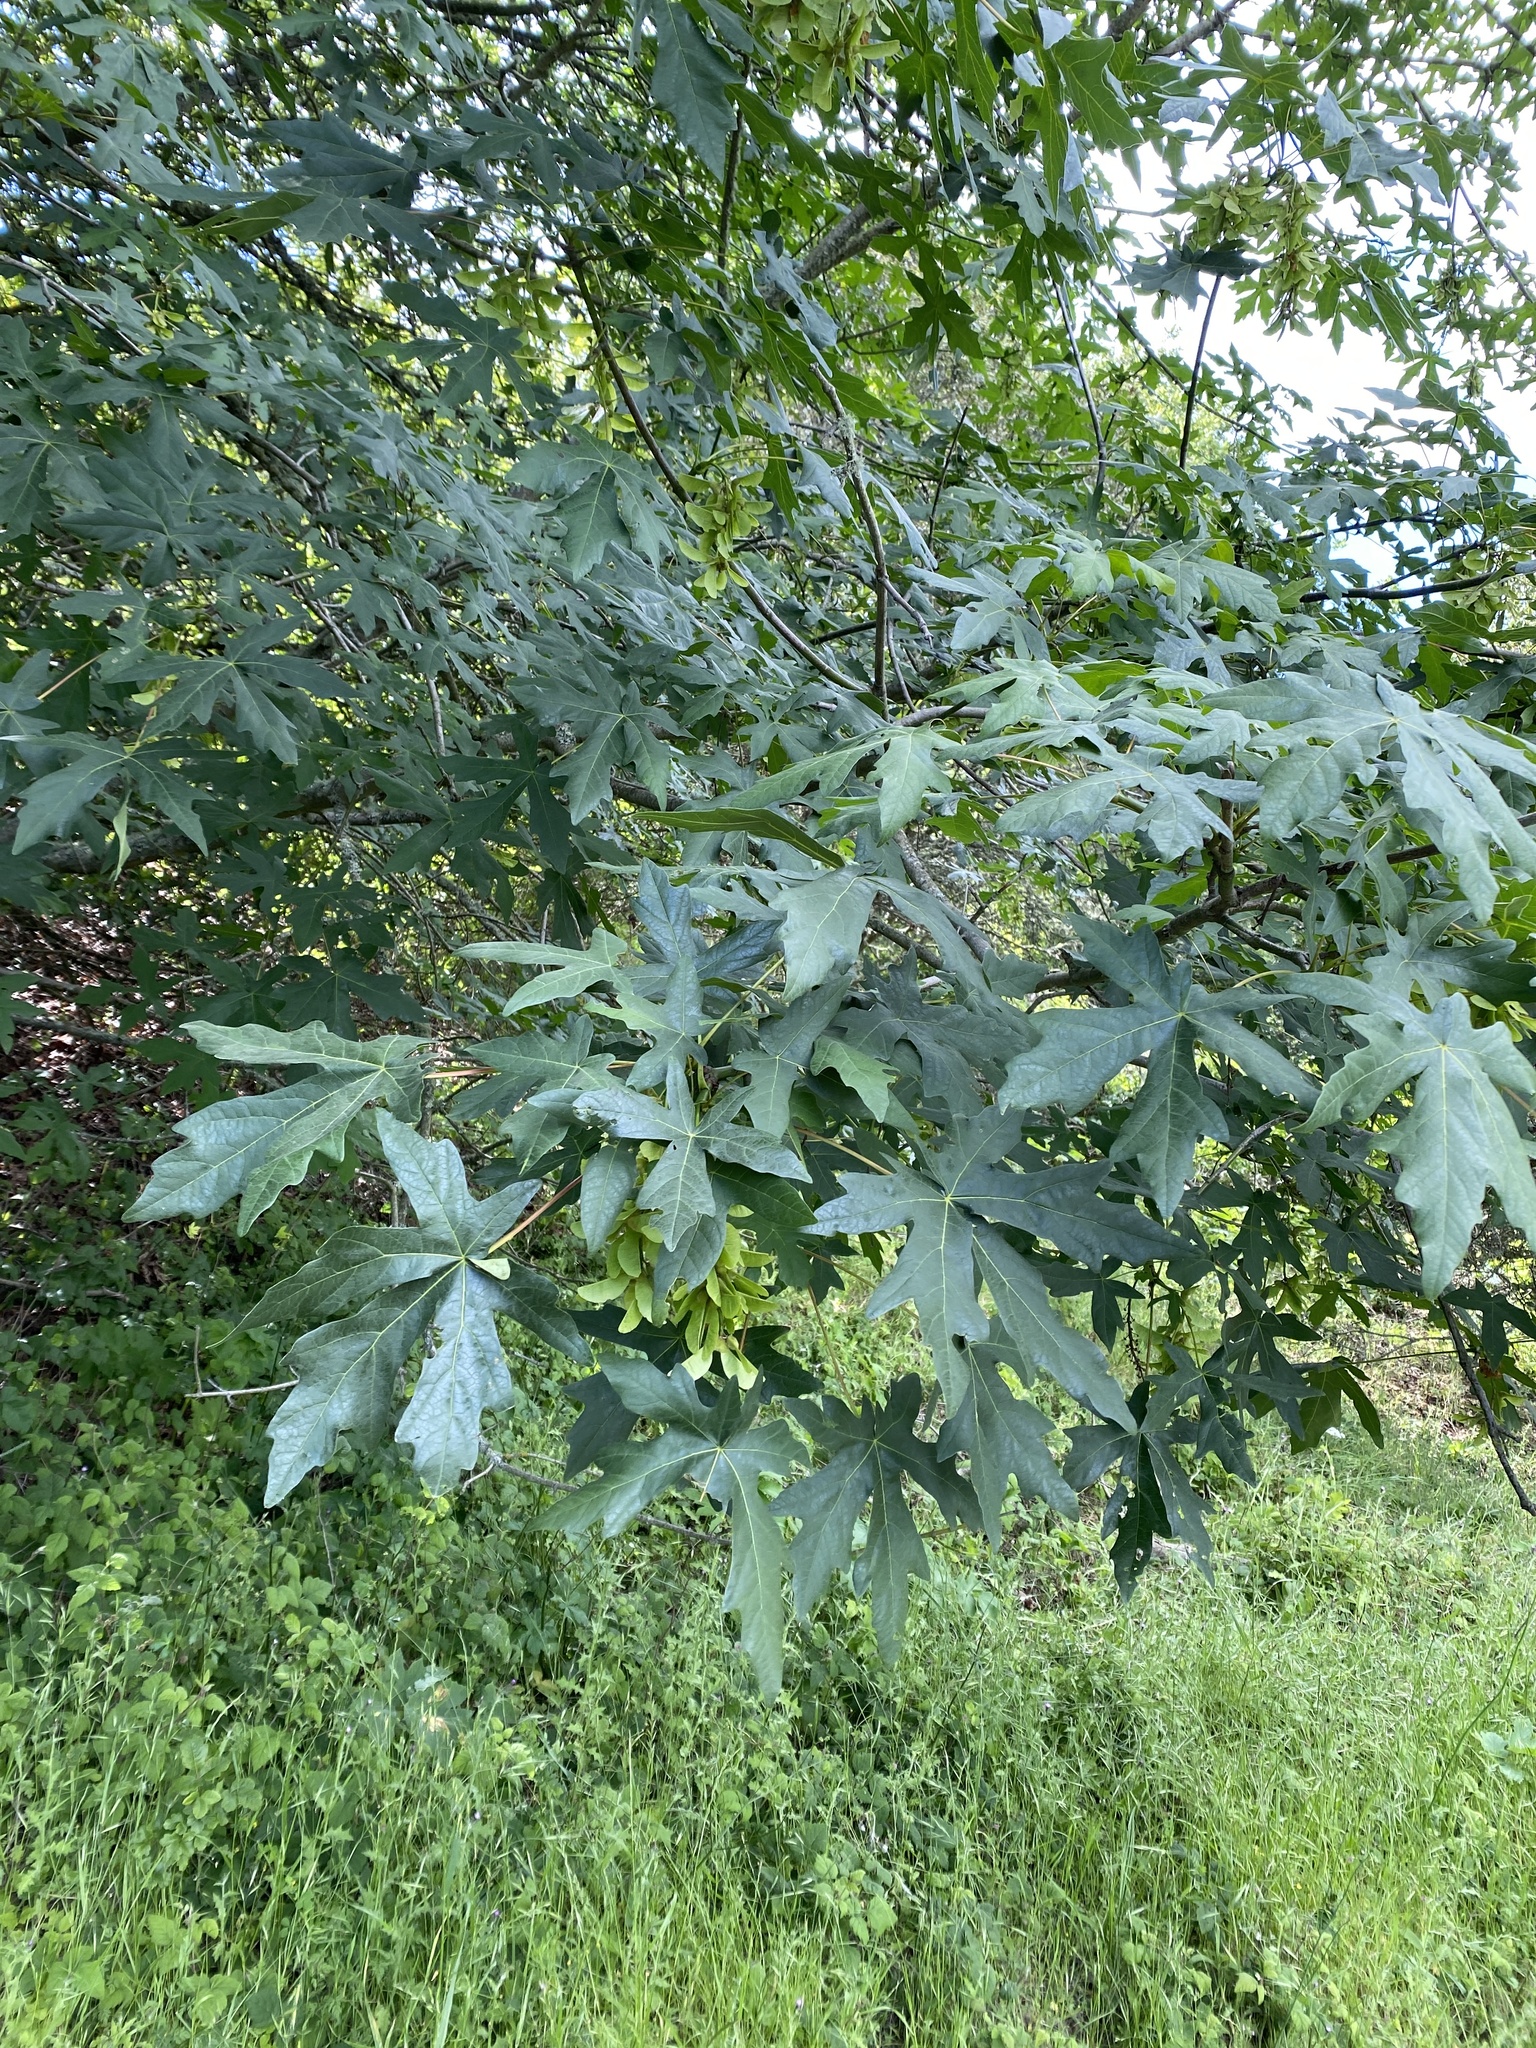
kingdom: Plantae
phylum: Tracheophyta
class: Magnoliopsida
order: Sapindales
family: Sapindaceae
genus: Acer
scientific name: Acer macrophyllum
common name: Oregon maple
